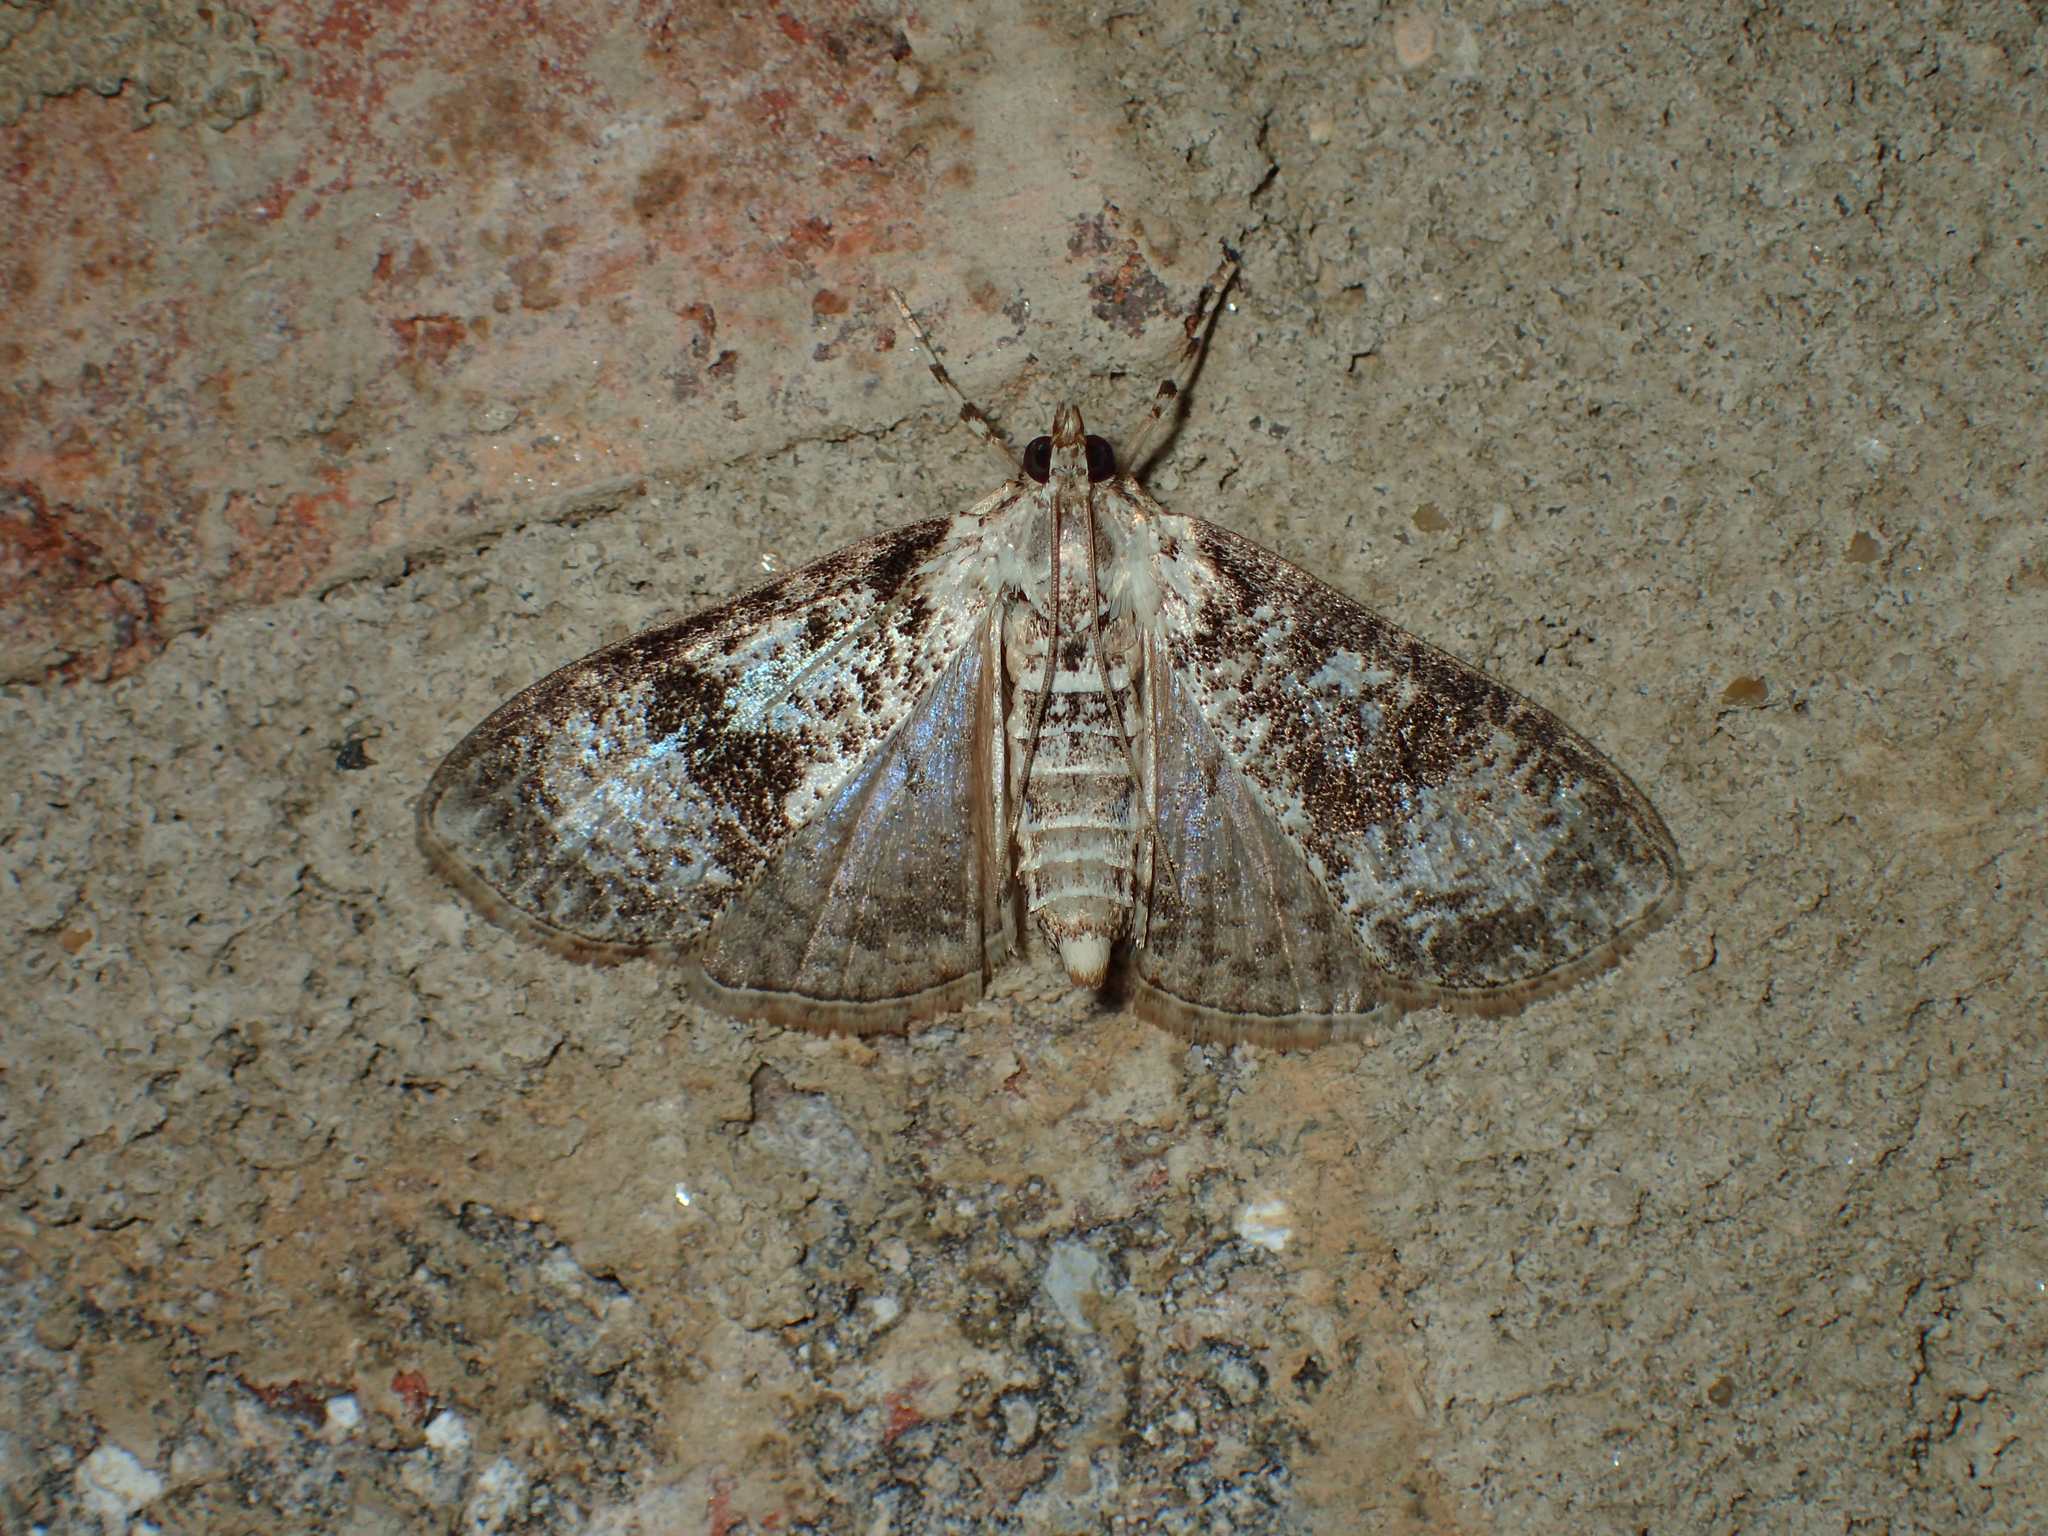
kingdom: Animalia
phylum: Arthropoda
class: Insecta
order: Lepidoptera
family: Crambidae
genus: Palpita
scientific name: Palpita magniferalis
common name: Splendid palpita moth
